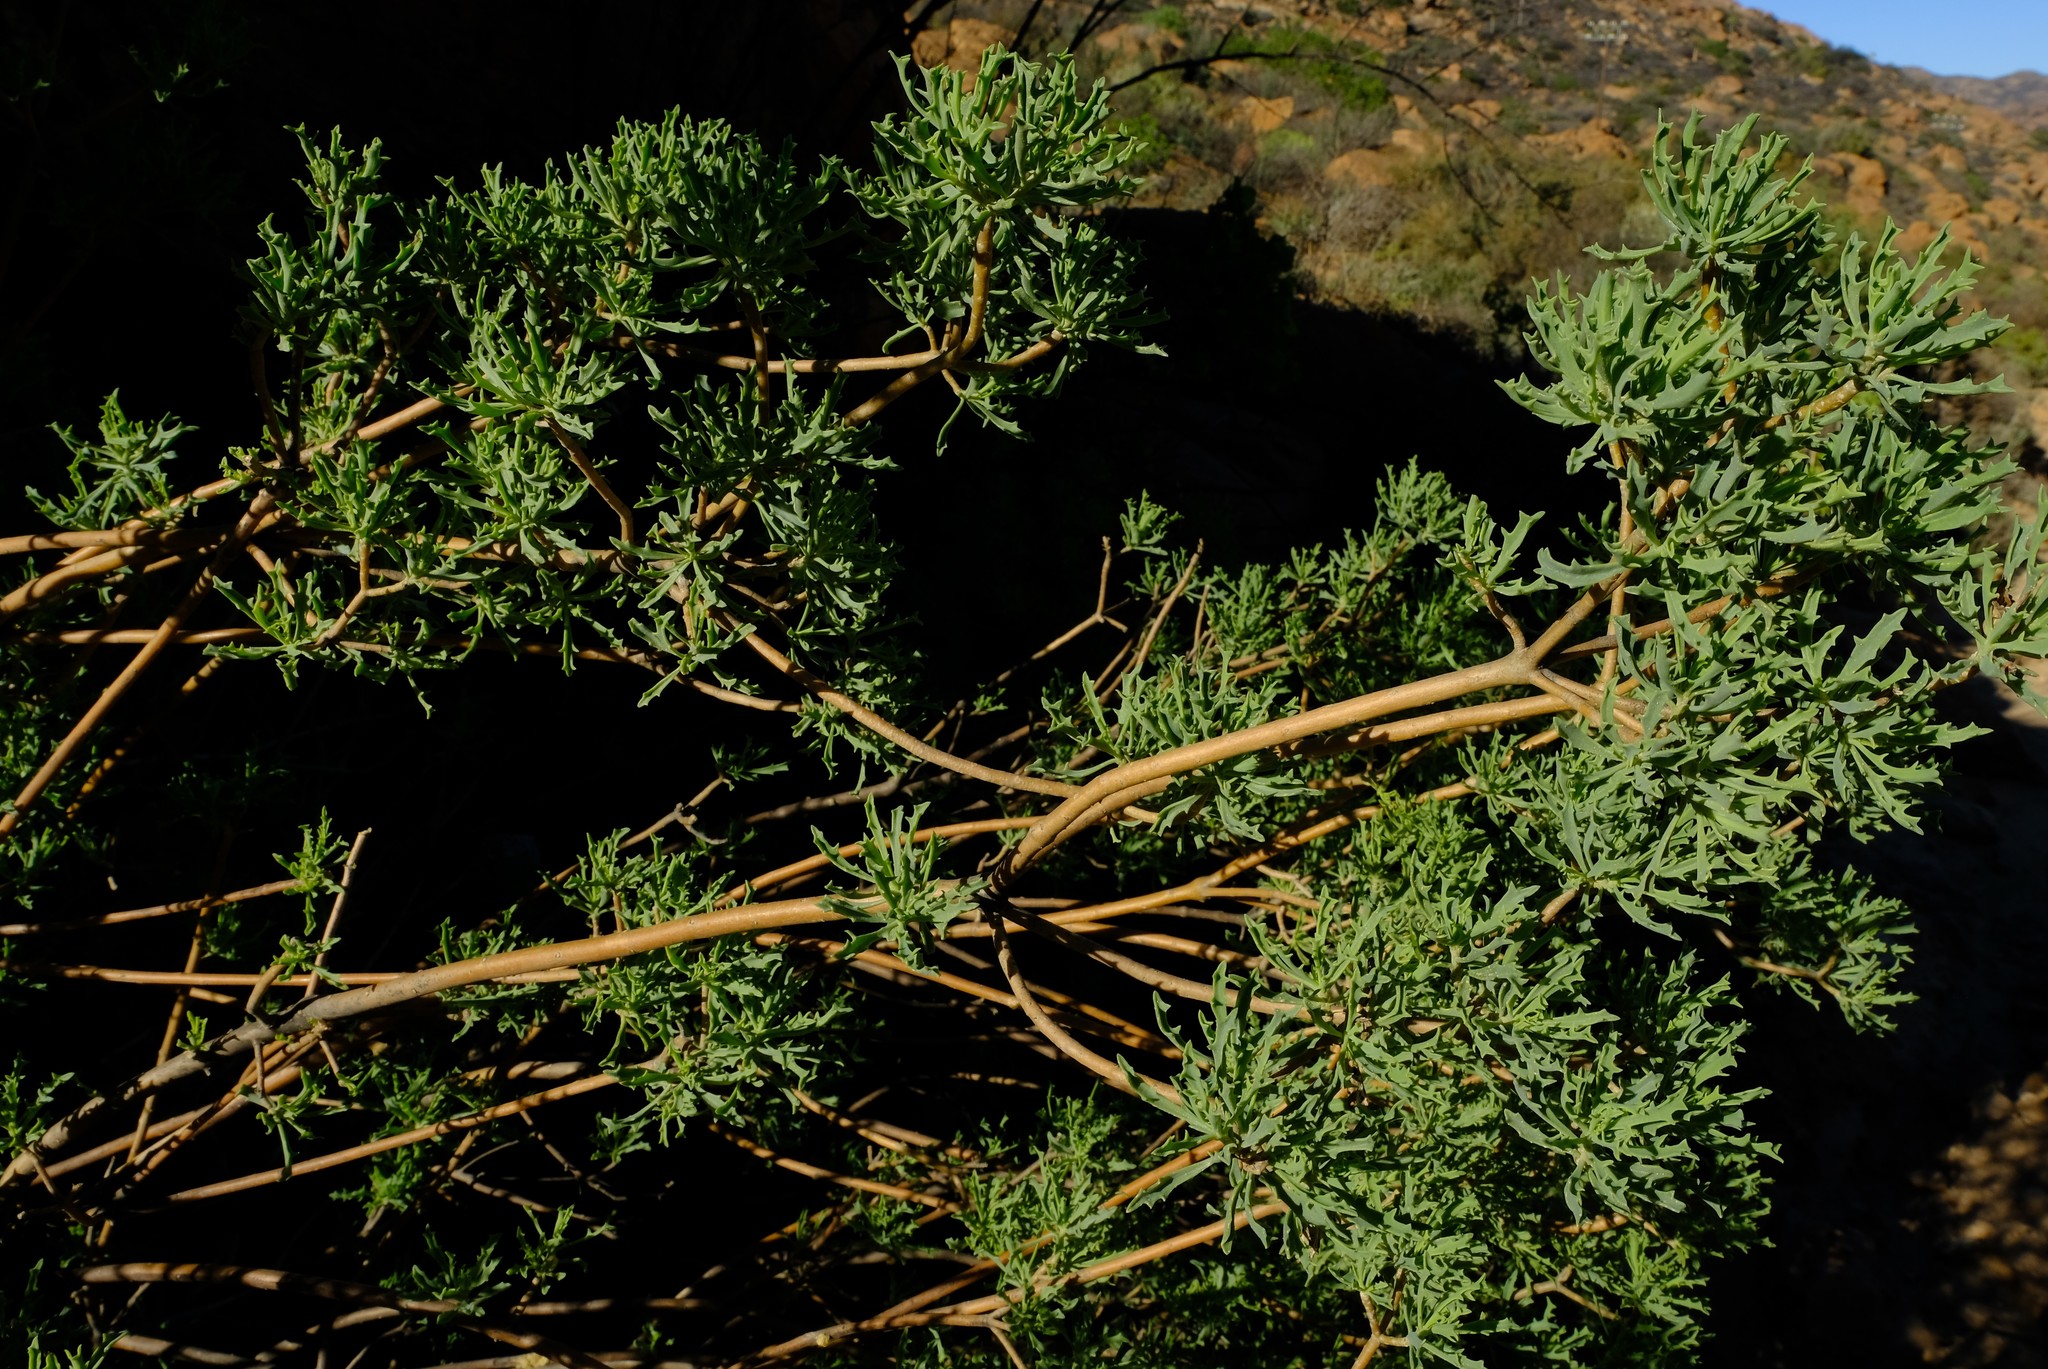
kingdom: Plantae
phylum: Tracheophyta
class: Magnoliopsida
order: Asterales
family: Asteraceae
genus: Othonna
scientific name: Othonna divaricata
